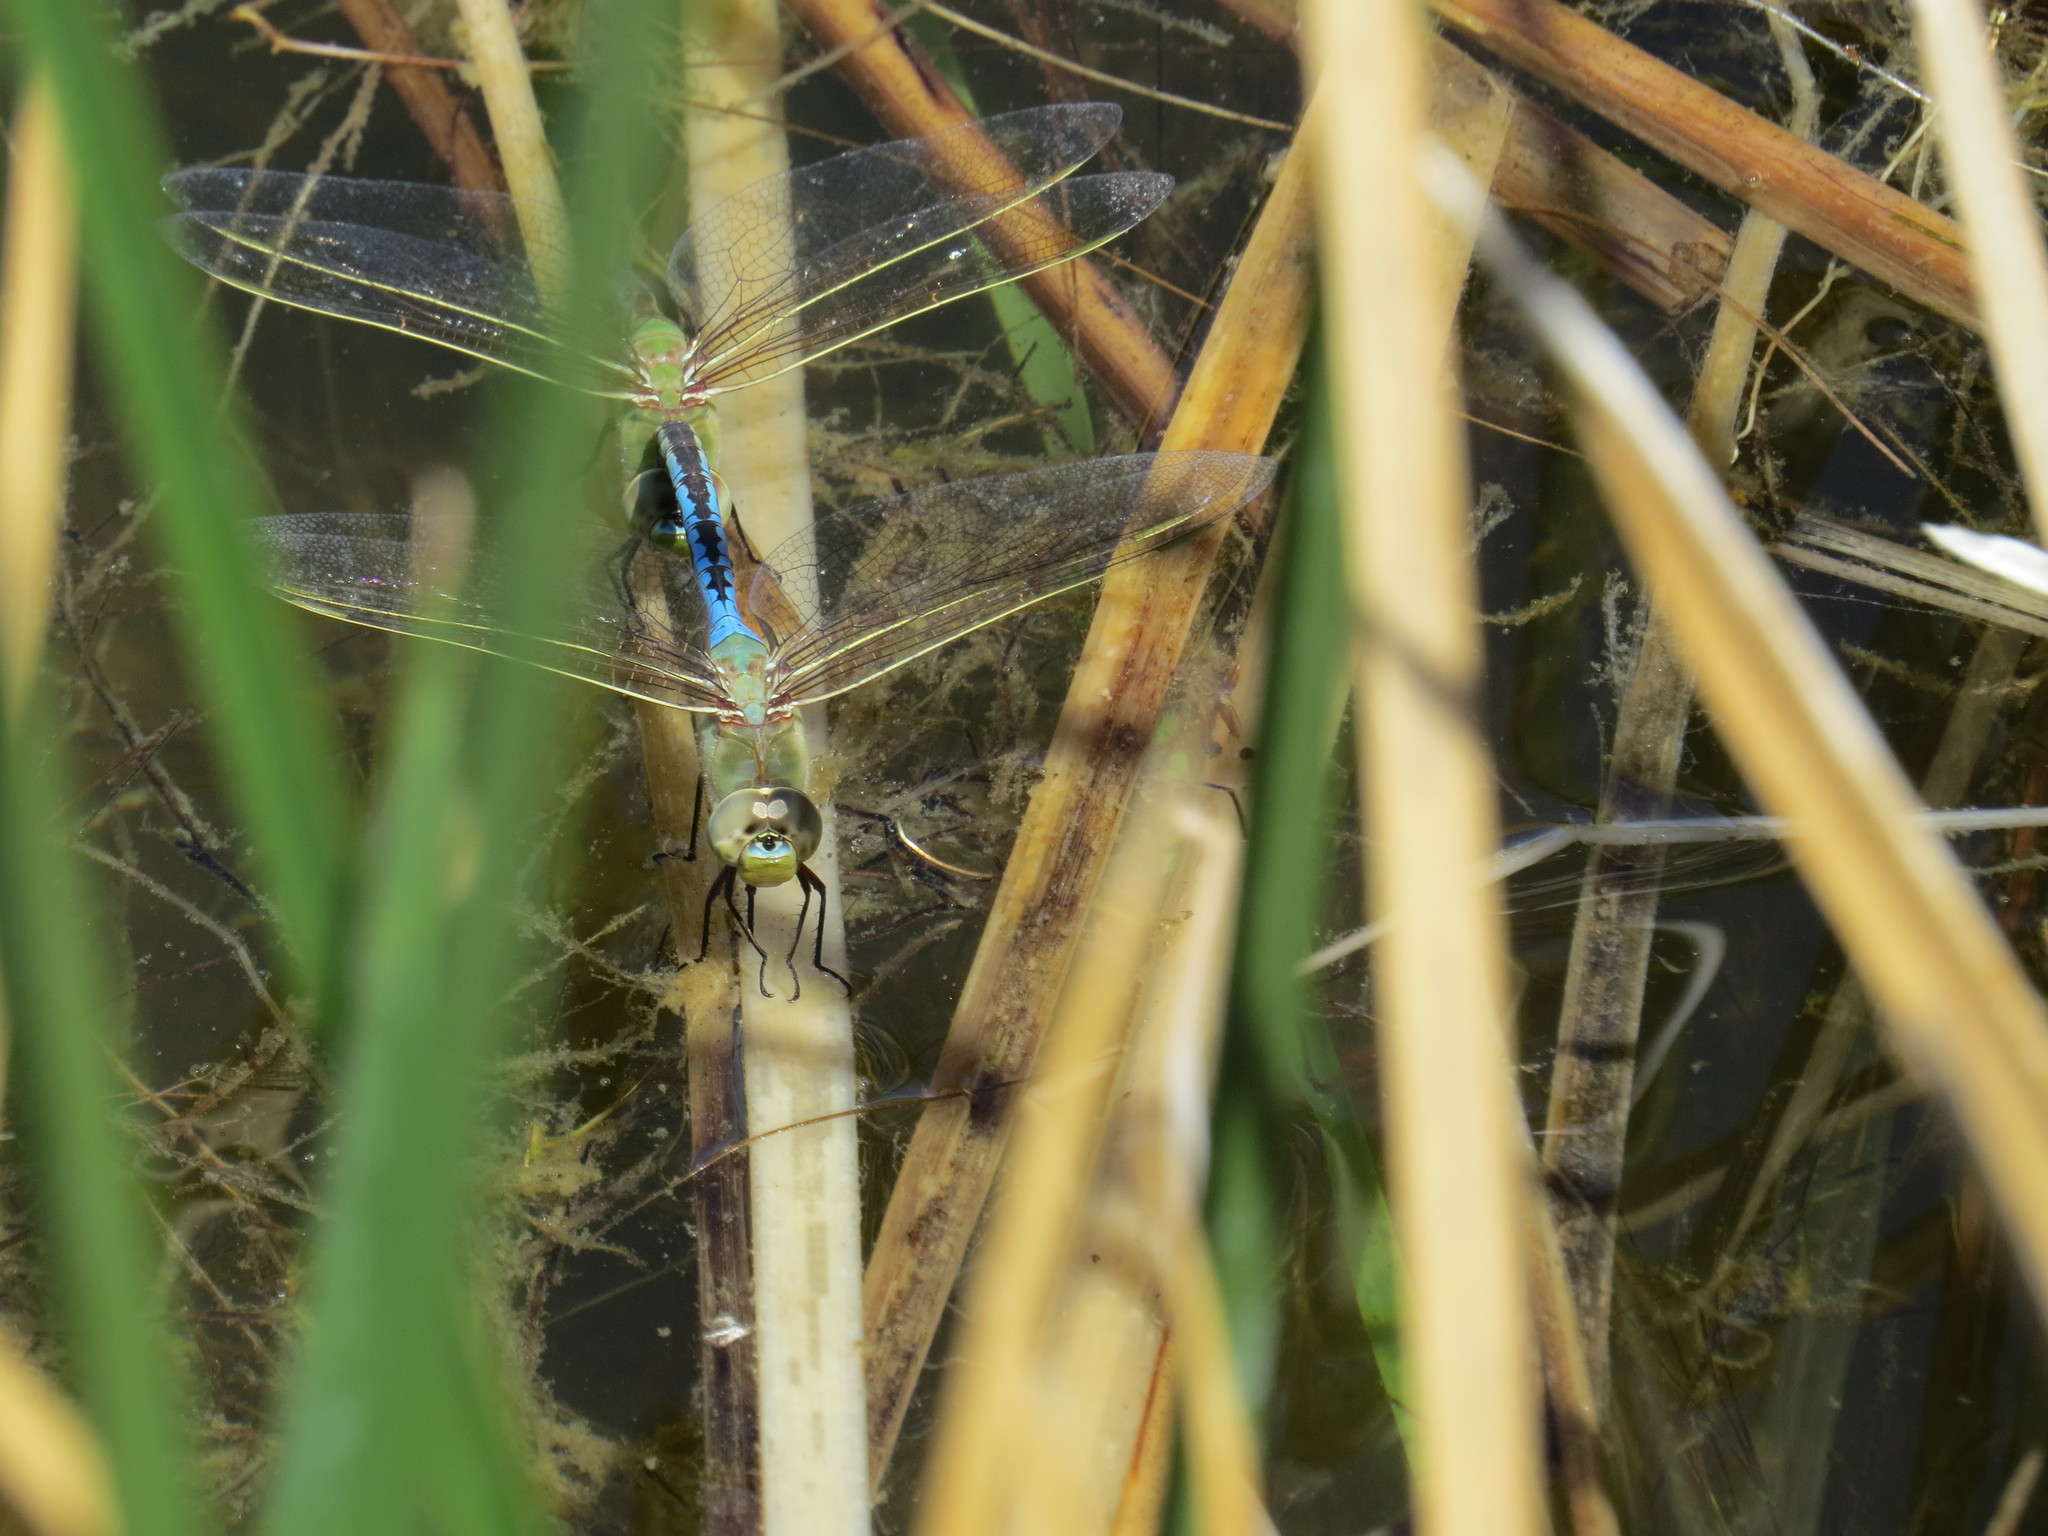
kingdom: Animalia
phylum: Arthropoda
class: Insecta
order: Odonata
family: Aeshnidae
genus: Anax
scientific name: Anax junius
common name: Common green darner
